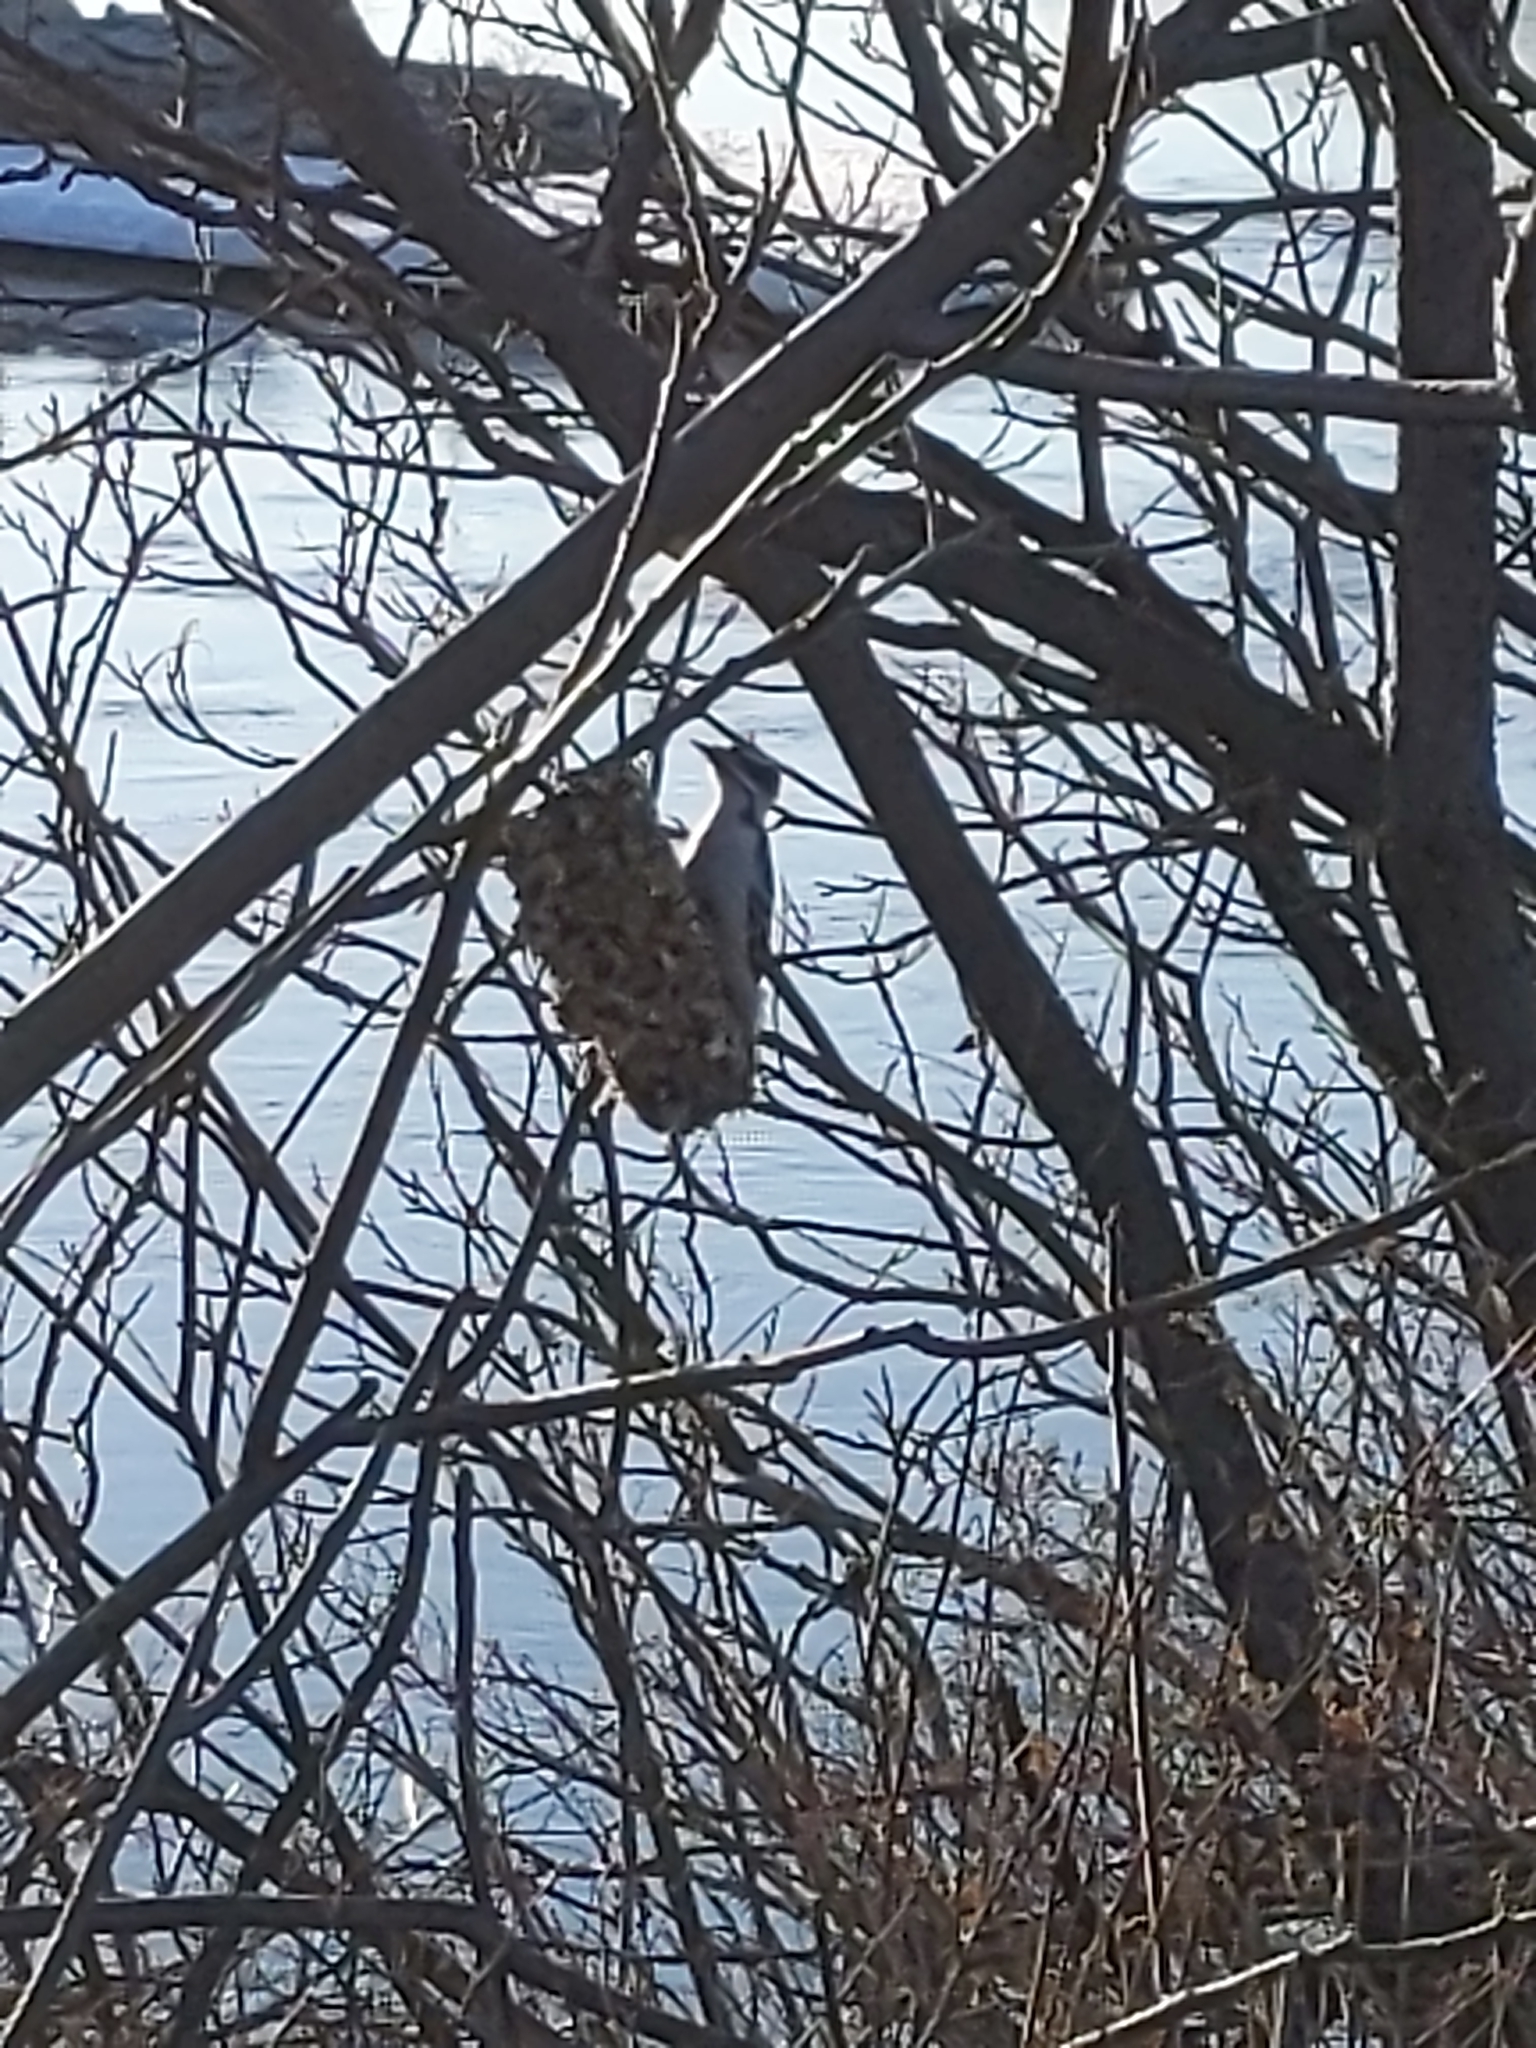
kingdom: Animalia
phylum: Chordata
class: Aves
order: Piciformes
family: Picidae
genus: Dryobates
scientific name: Dryobates pubescens
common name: Downy woodpecker
